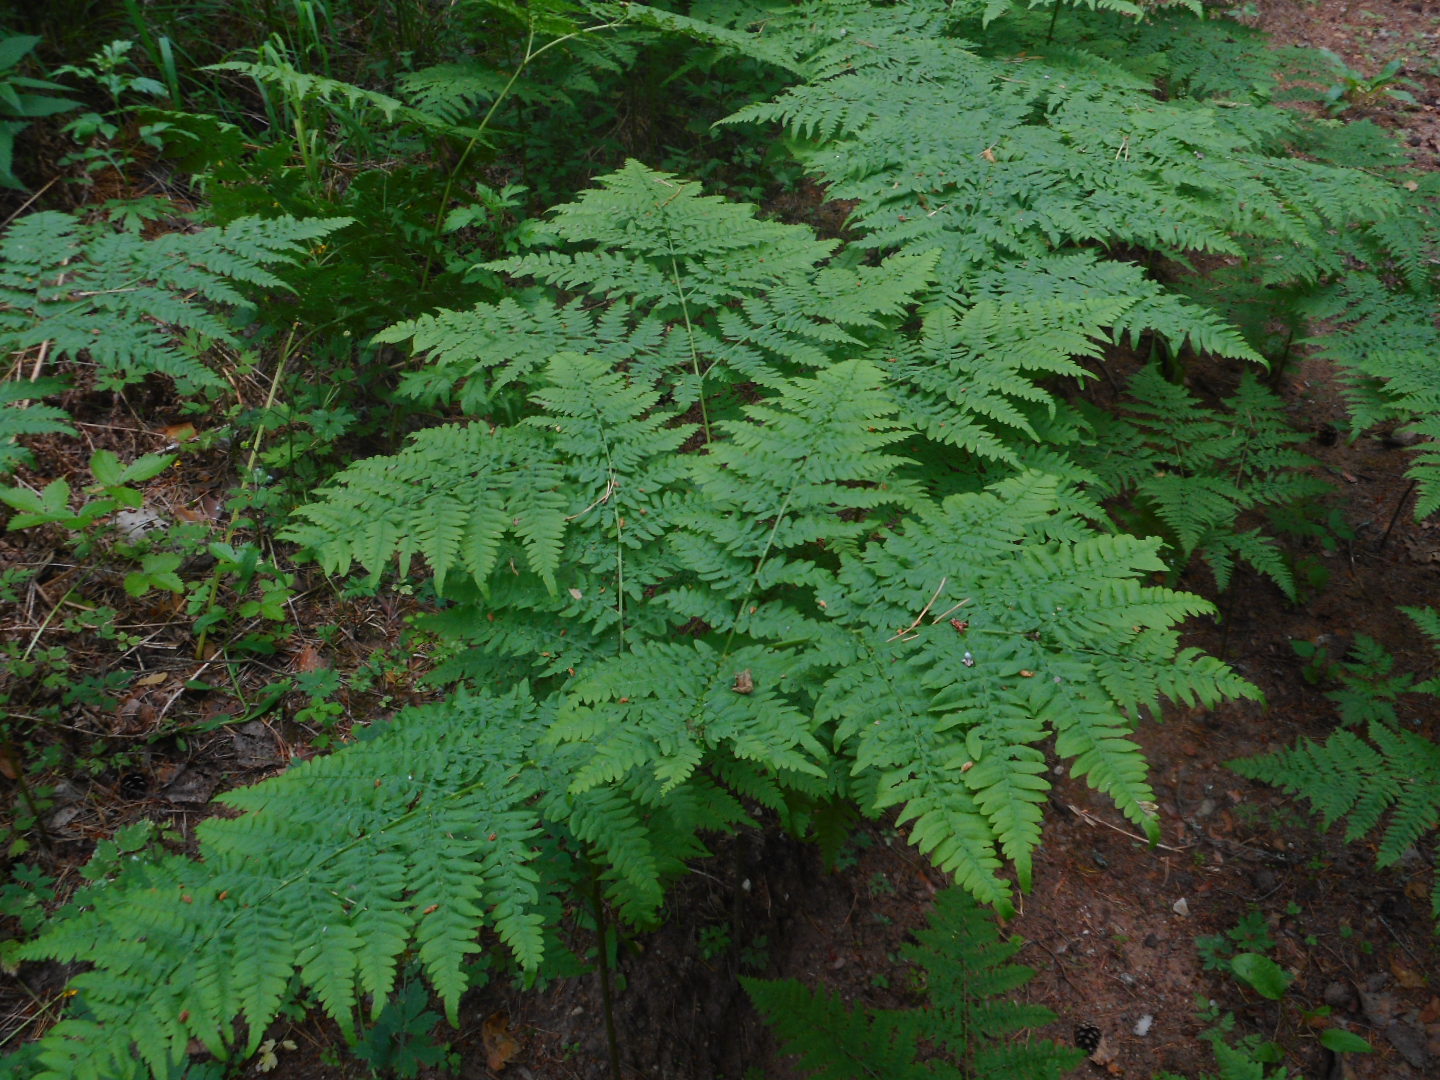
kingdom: Plantae
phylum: Tracheophyta
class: Polypodiopsida
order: Polypodiales
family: Dennstaedtiaceae
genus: Pteridium
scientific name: Pteridium aquilinum
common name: Bracken
